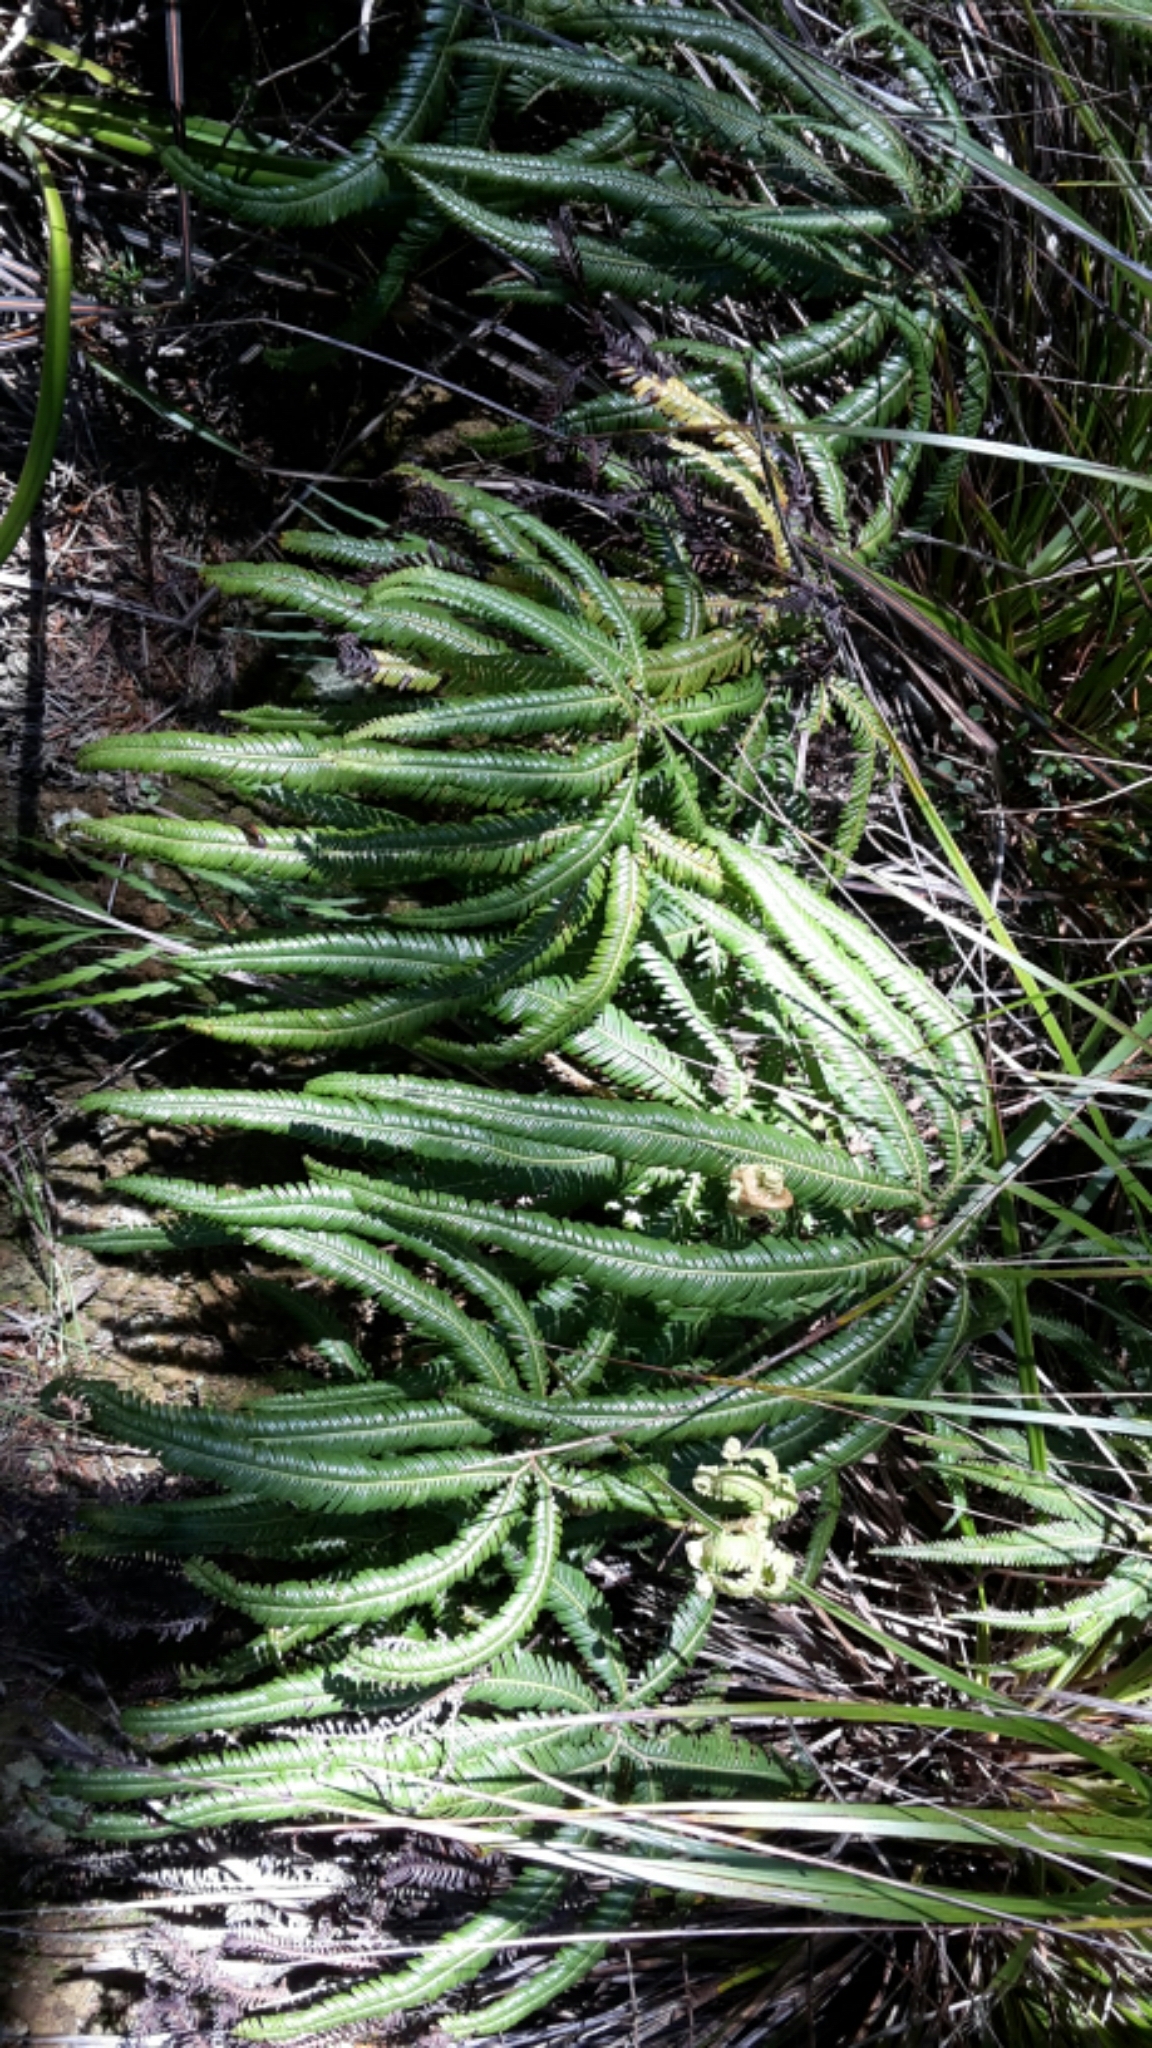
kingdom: Plantae
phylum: Tracheophyta
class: Polypodiopsida
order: Gleicheniales
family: Gleicheniaceae
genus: Sticherus
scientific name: Sticherus cunninghamii
